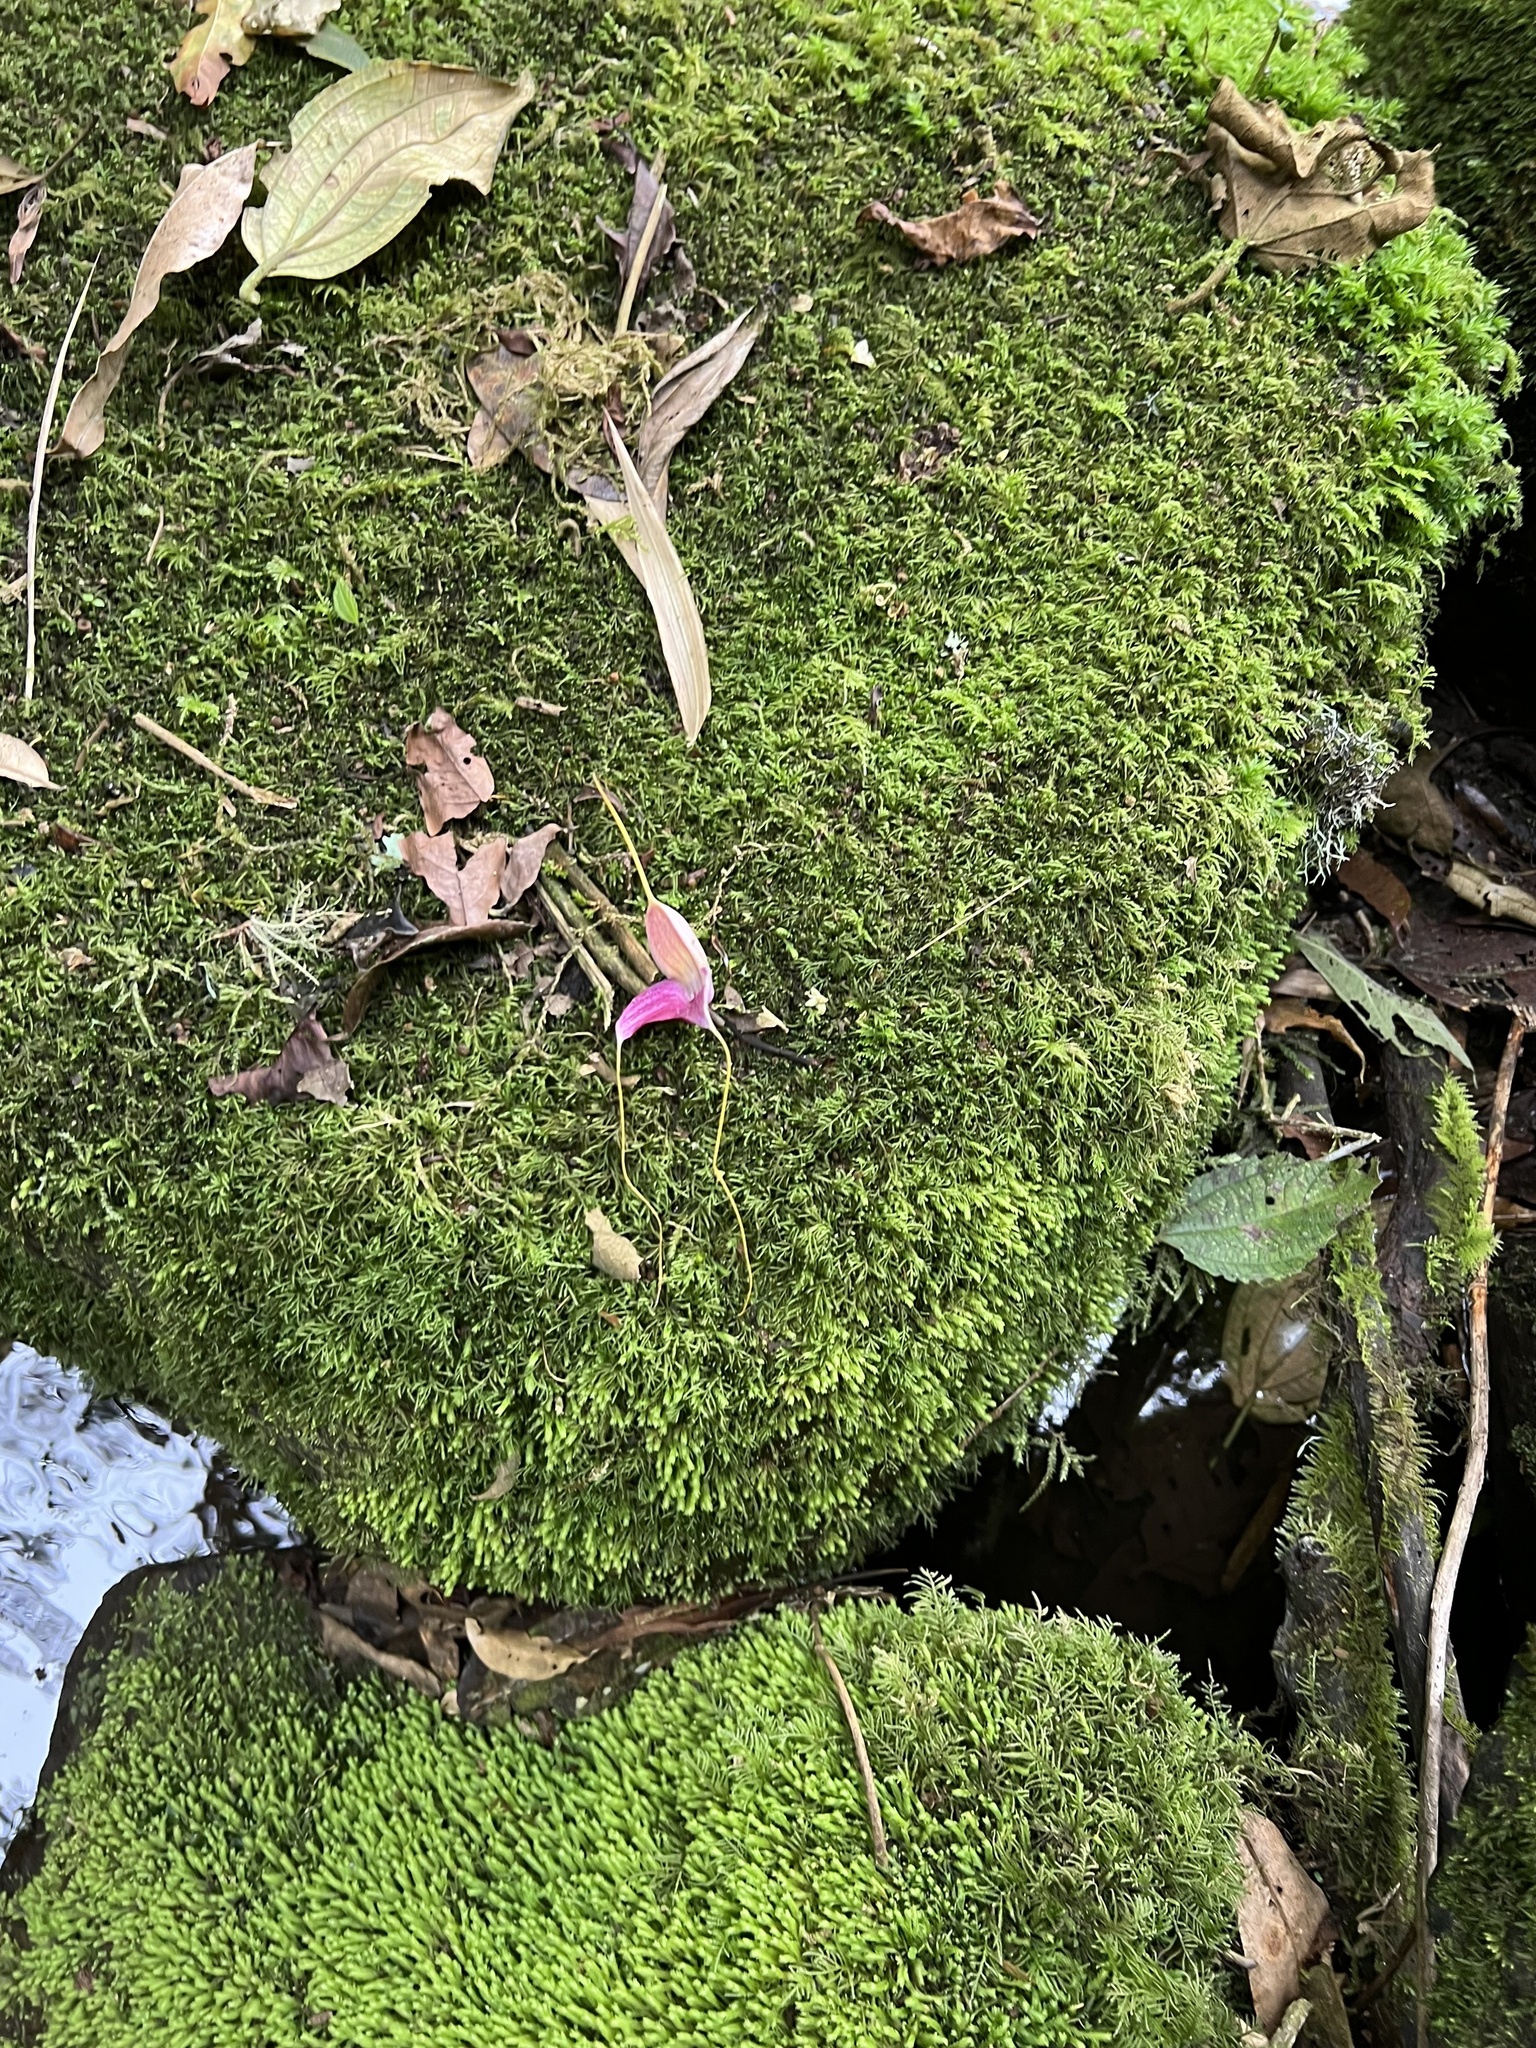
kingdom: Plantae
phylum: Tracheophyta
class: Liliopsida
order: Asparagales
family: Orchidaceae
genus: Masdevallia
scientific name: Masdevallia caudata
